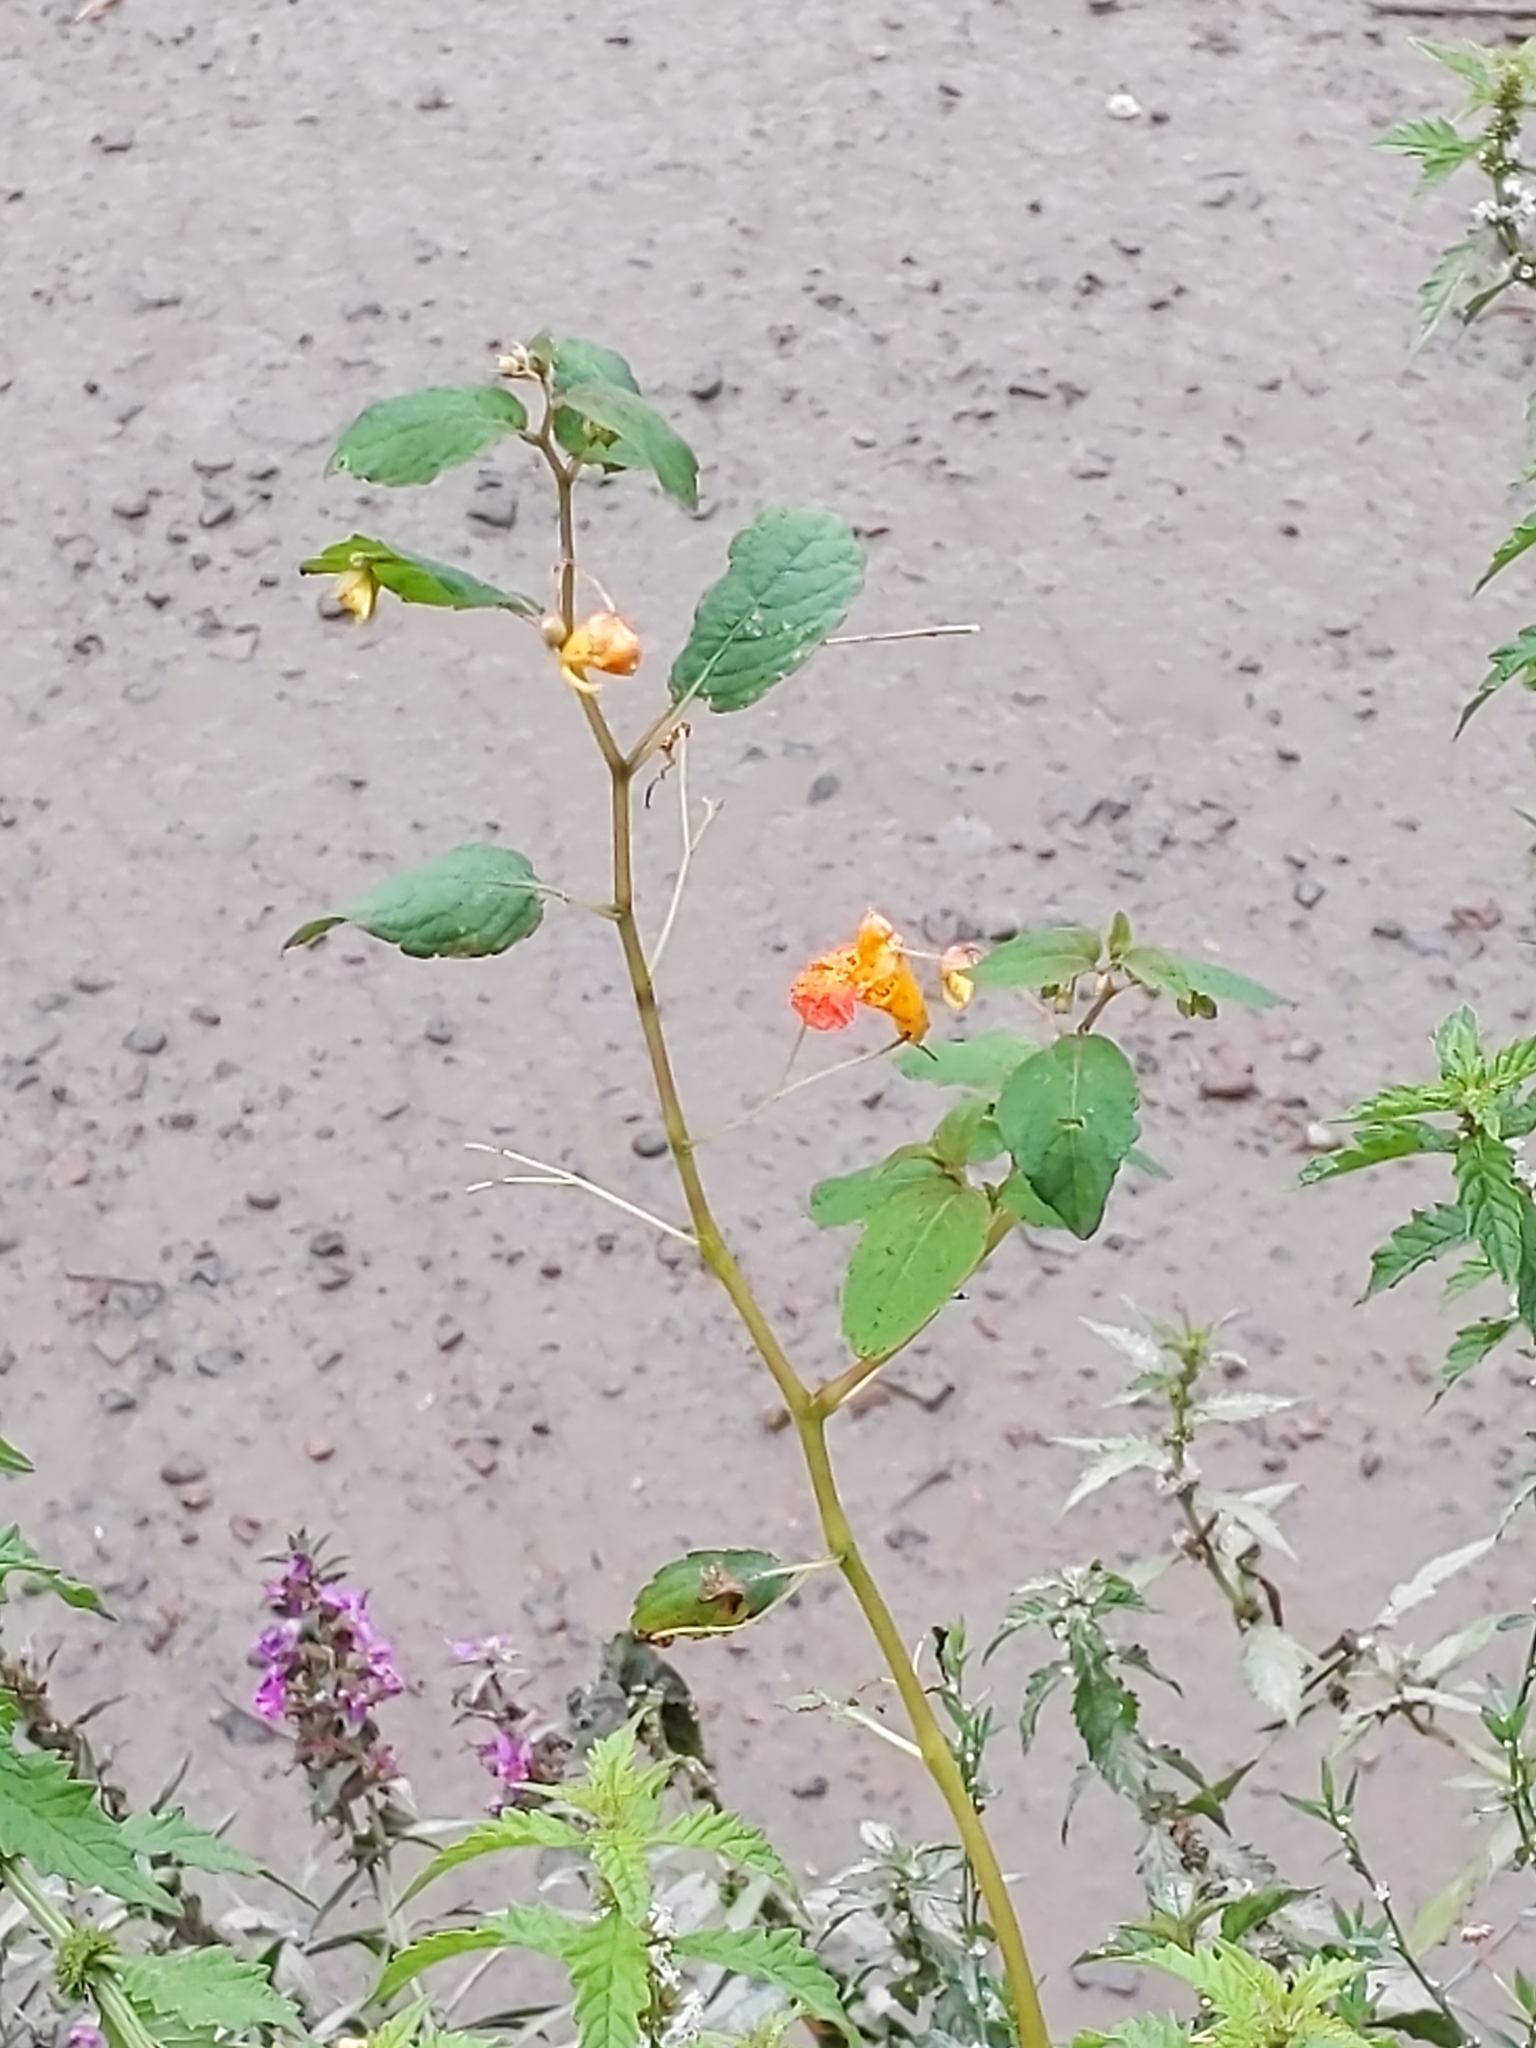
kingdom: Plantae
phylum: Tracheophyta
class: Magnoliopsida
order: Ericales
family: Balsaminaceae
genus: Impatiens
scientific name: Impatiens capensis
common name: Orange balsam
